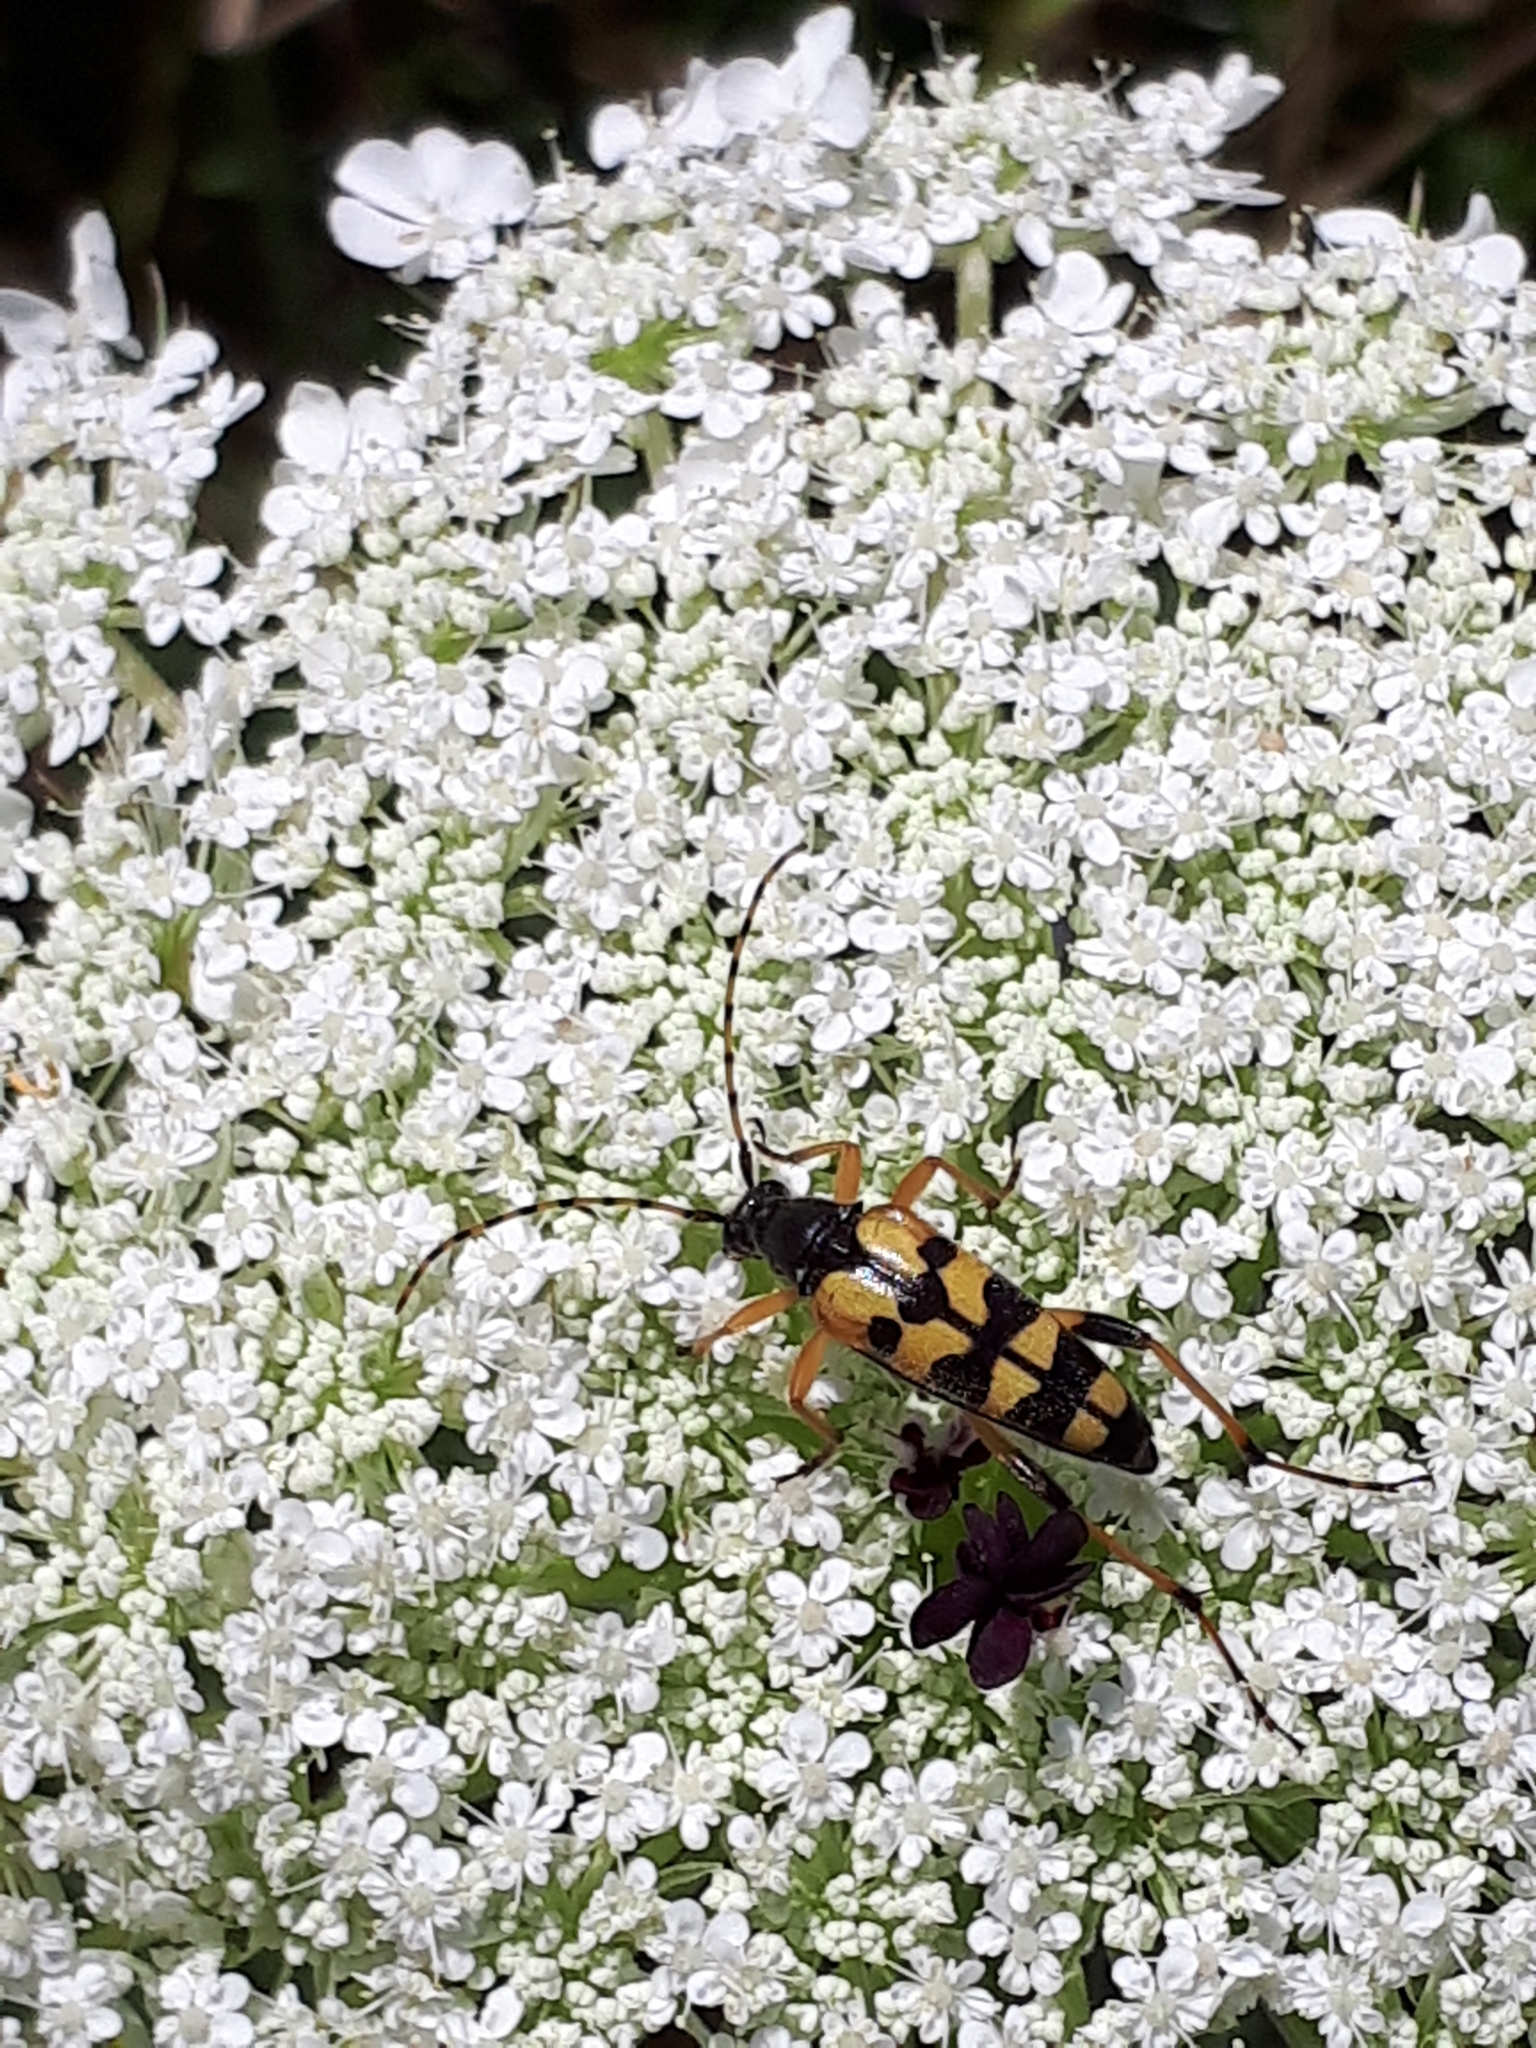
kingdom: Animalia
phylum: Arthropoda
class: Insecta
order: Coleoptera
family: Cerambycidae
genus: Rutpela
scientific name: Rutpela maculata
